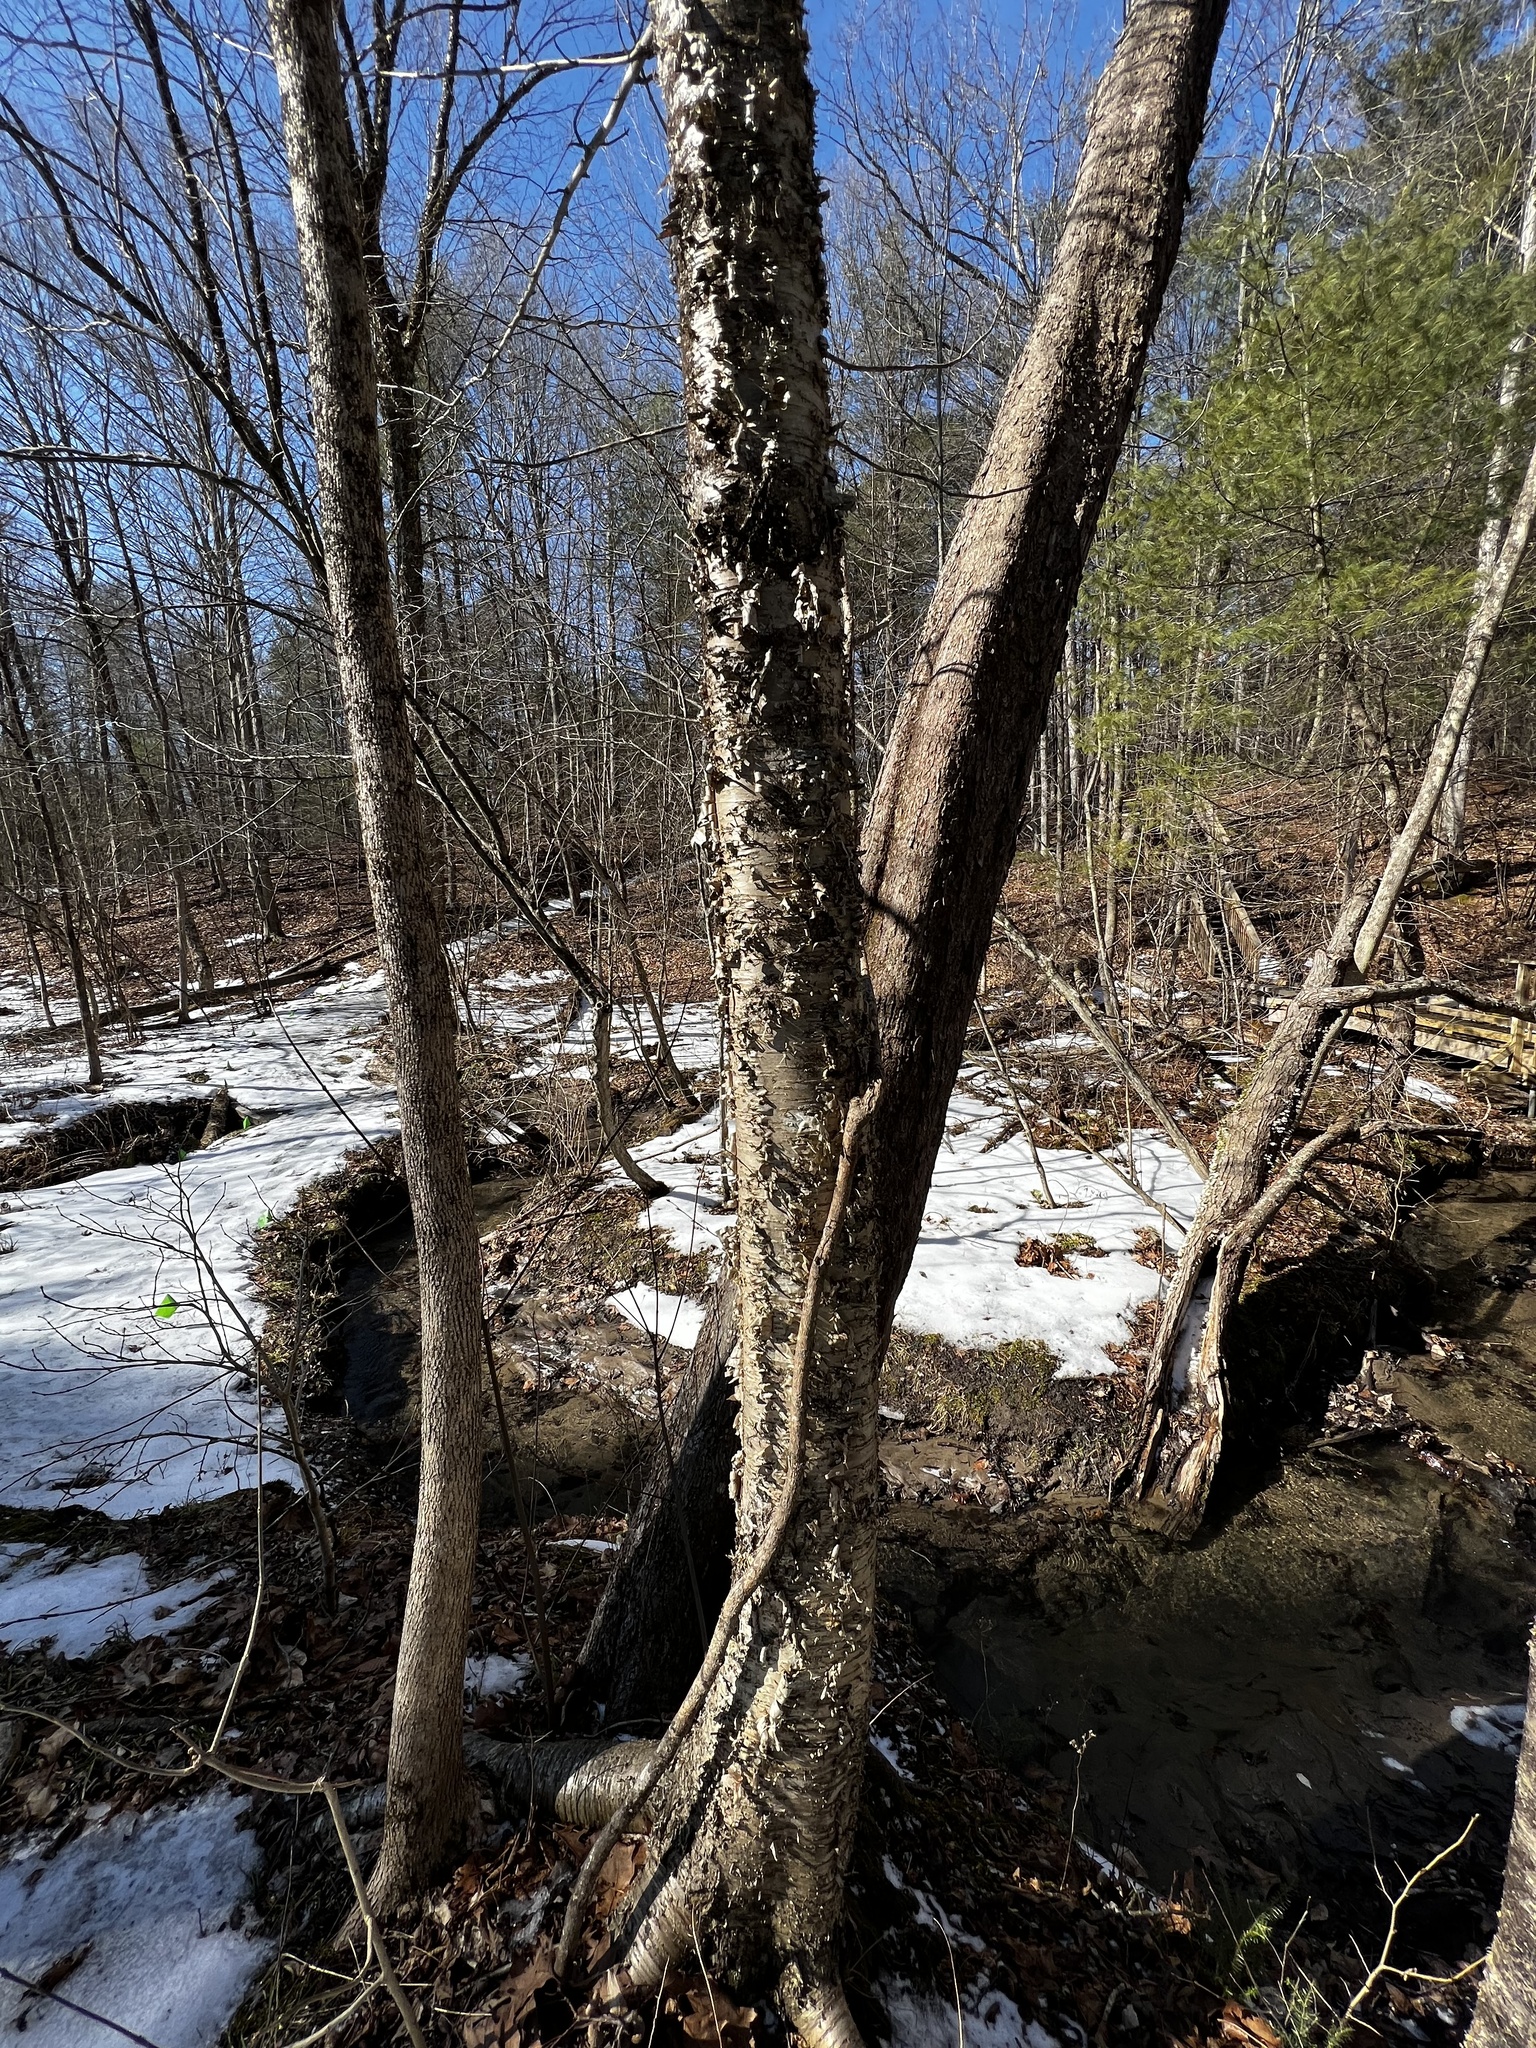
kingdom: Plantae
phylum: Tracheophyta
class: Magnoliopsida
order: Fagales
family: Betulaceae
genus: Betula
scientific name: Betula alleghaniensis
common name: Yellow birch
